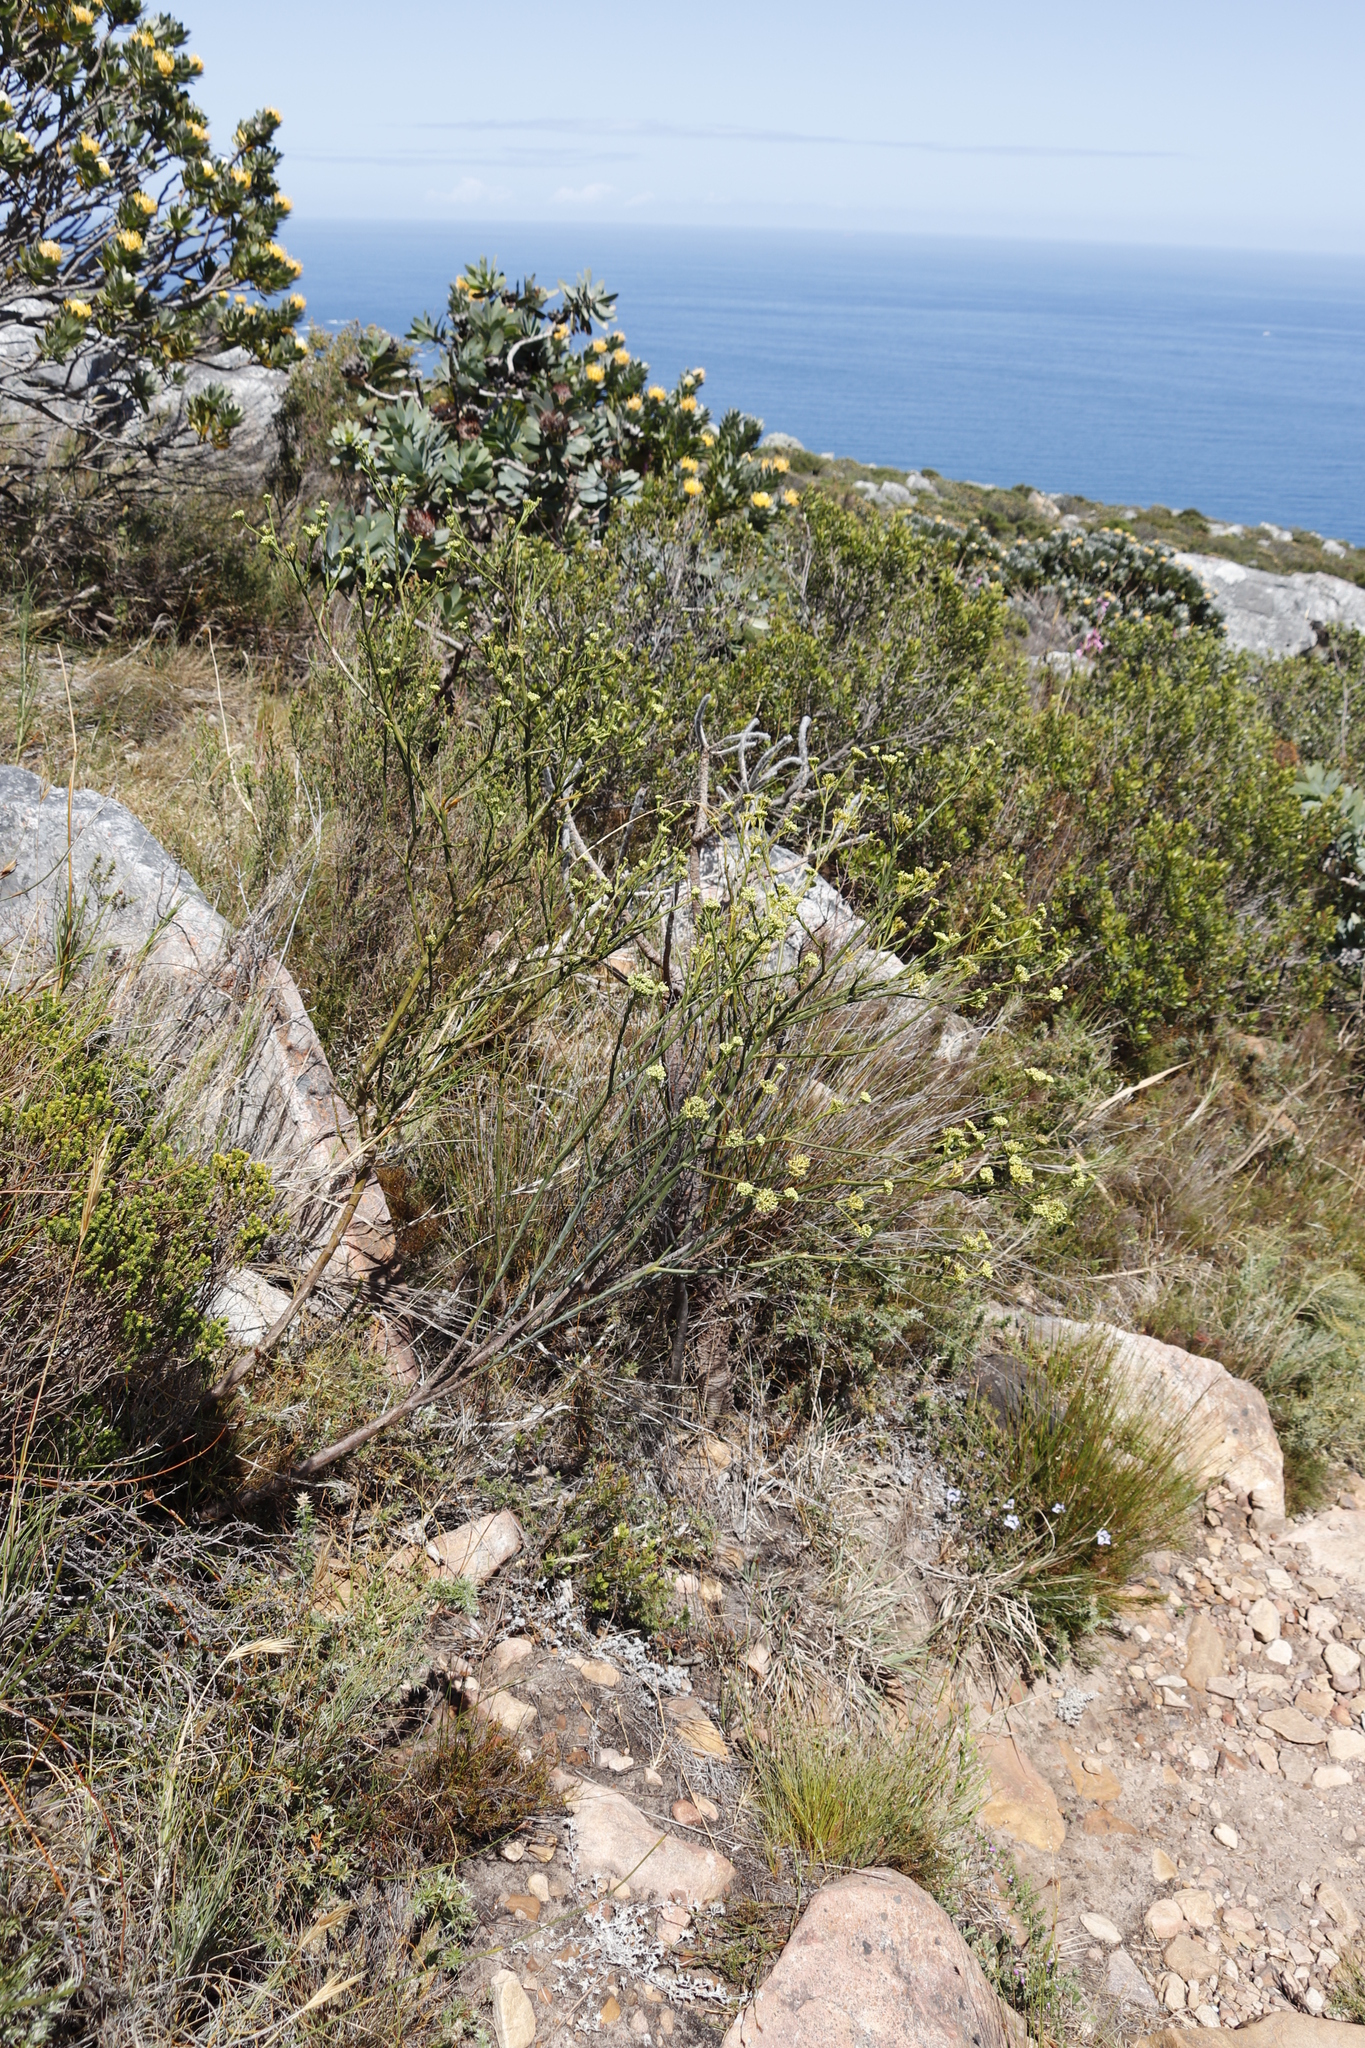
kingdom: Plantae
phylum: Tracheophyta
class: Magnoliopsida
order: Santalales
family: Thesiaceae
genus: Thesium
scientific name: Thesium strictum
